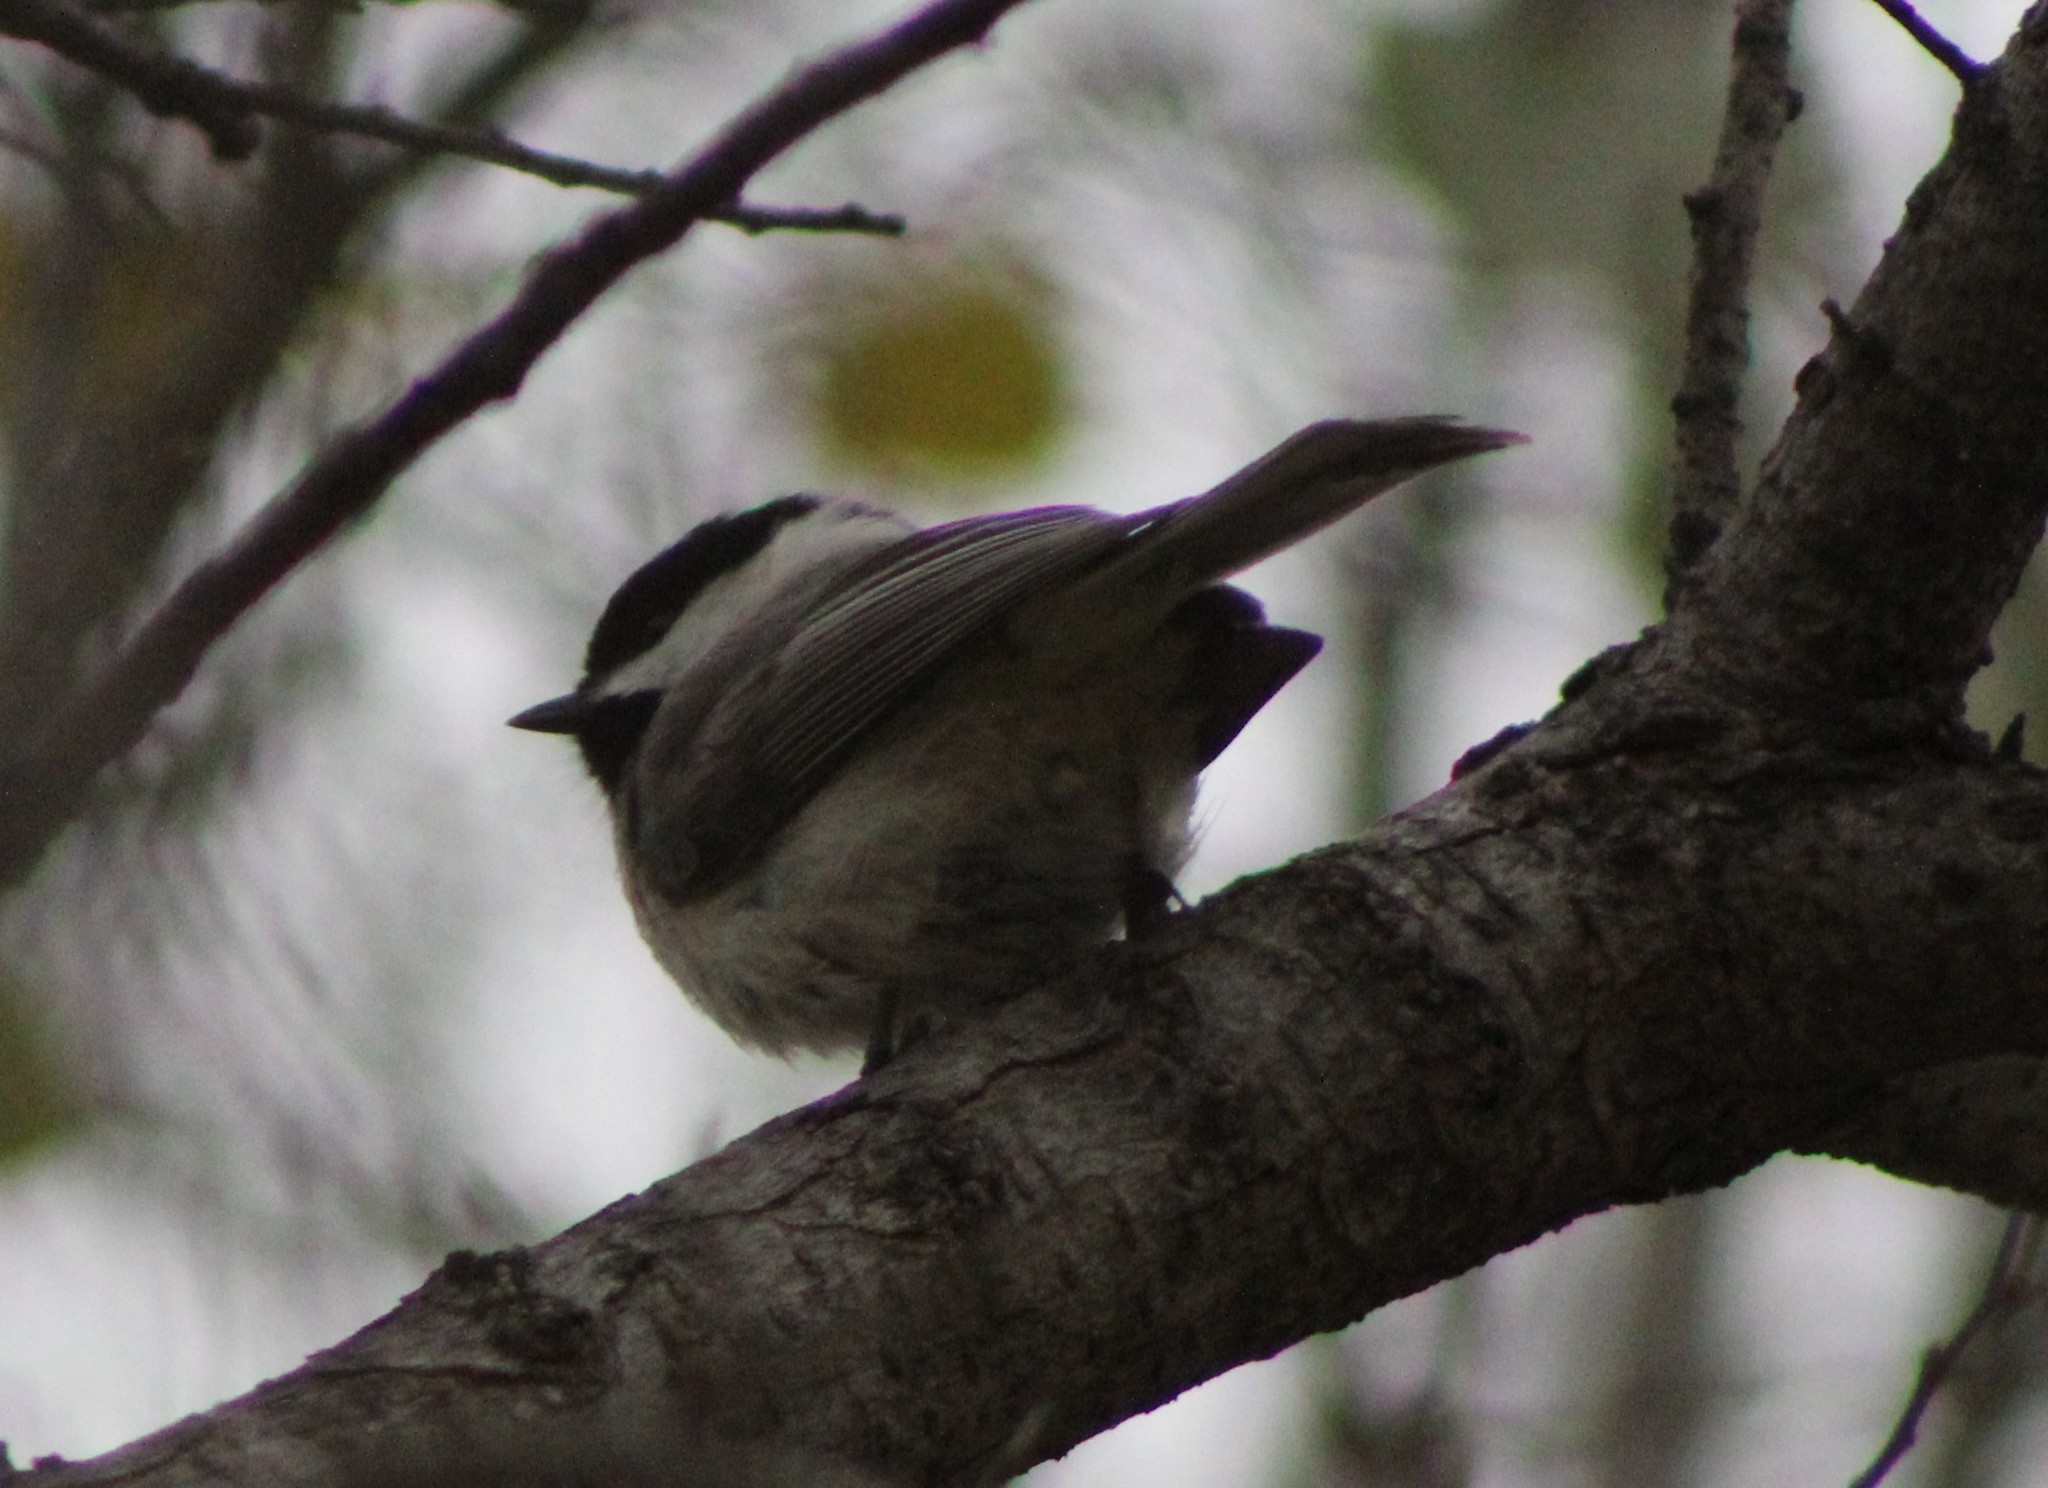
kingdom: Animalia
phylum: Chordata
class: Aves
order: Passeriformes
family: Paridae
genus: Poecile
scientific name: Poecile carolinensis
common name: Carolina chickadee
